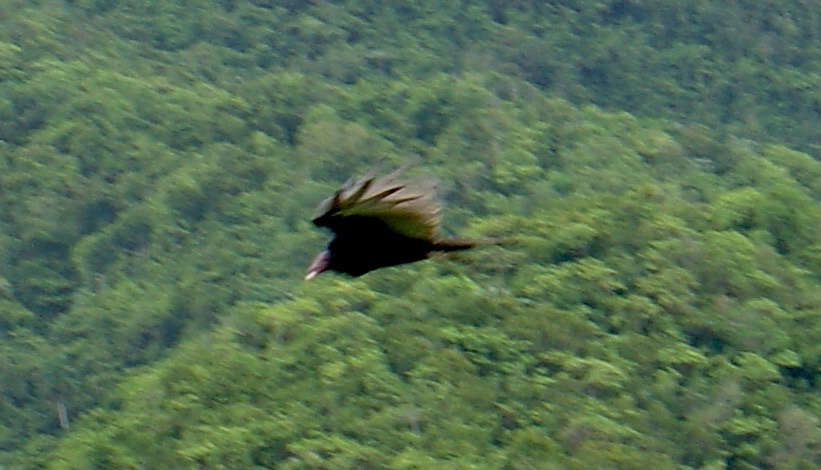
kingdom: Animalia
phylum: Chordata
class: Aves
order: Accipitriformes
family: Cathartidae
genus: Cathartes
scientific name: Cathartes aura
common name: Turkey vulture
